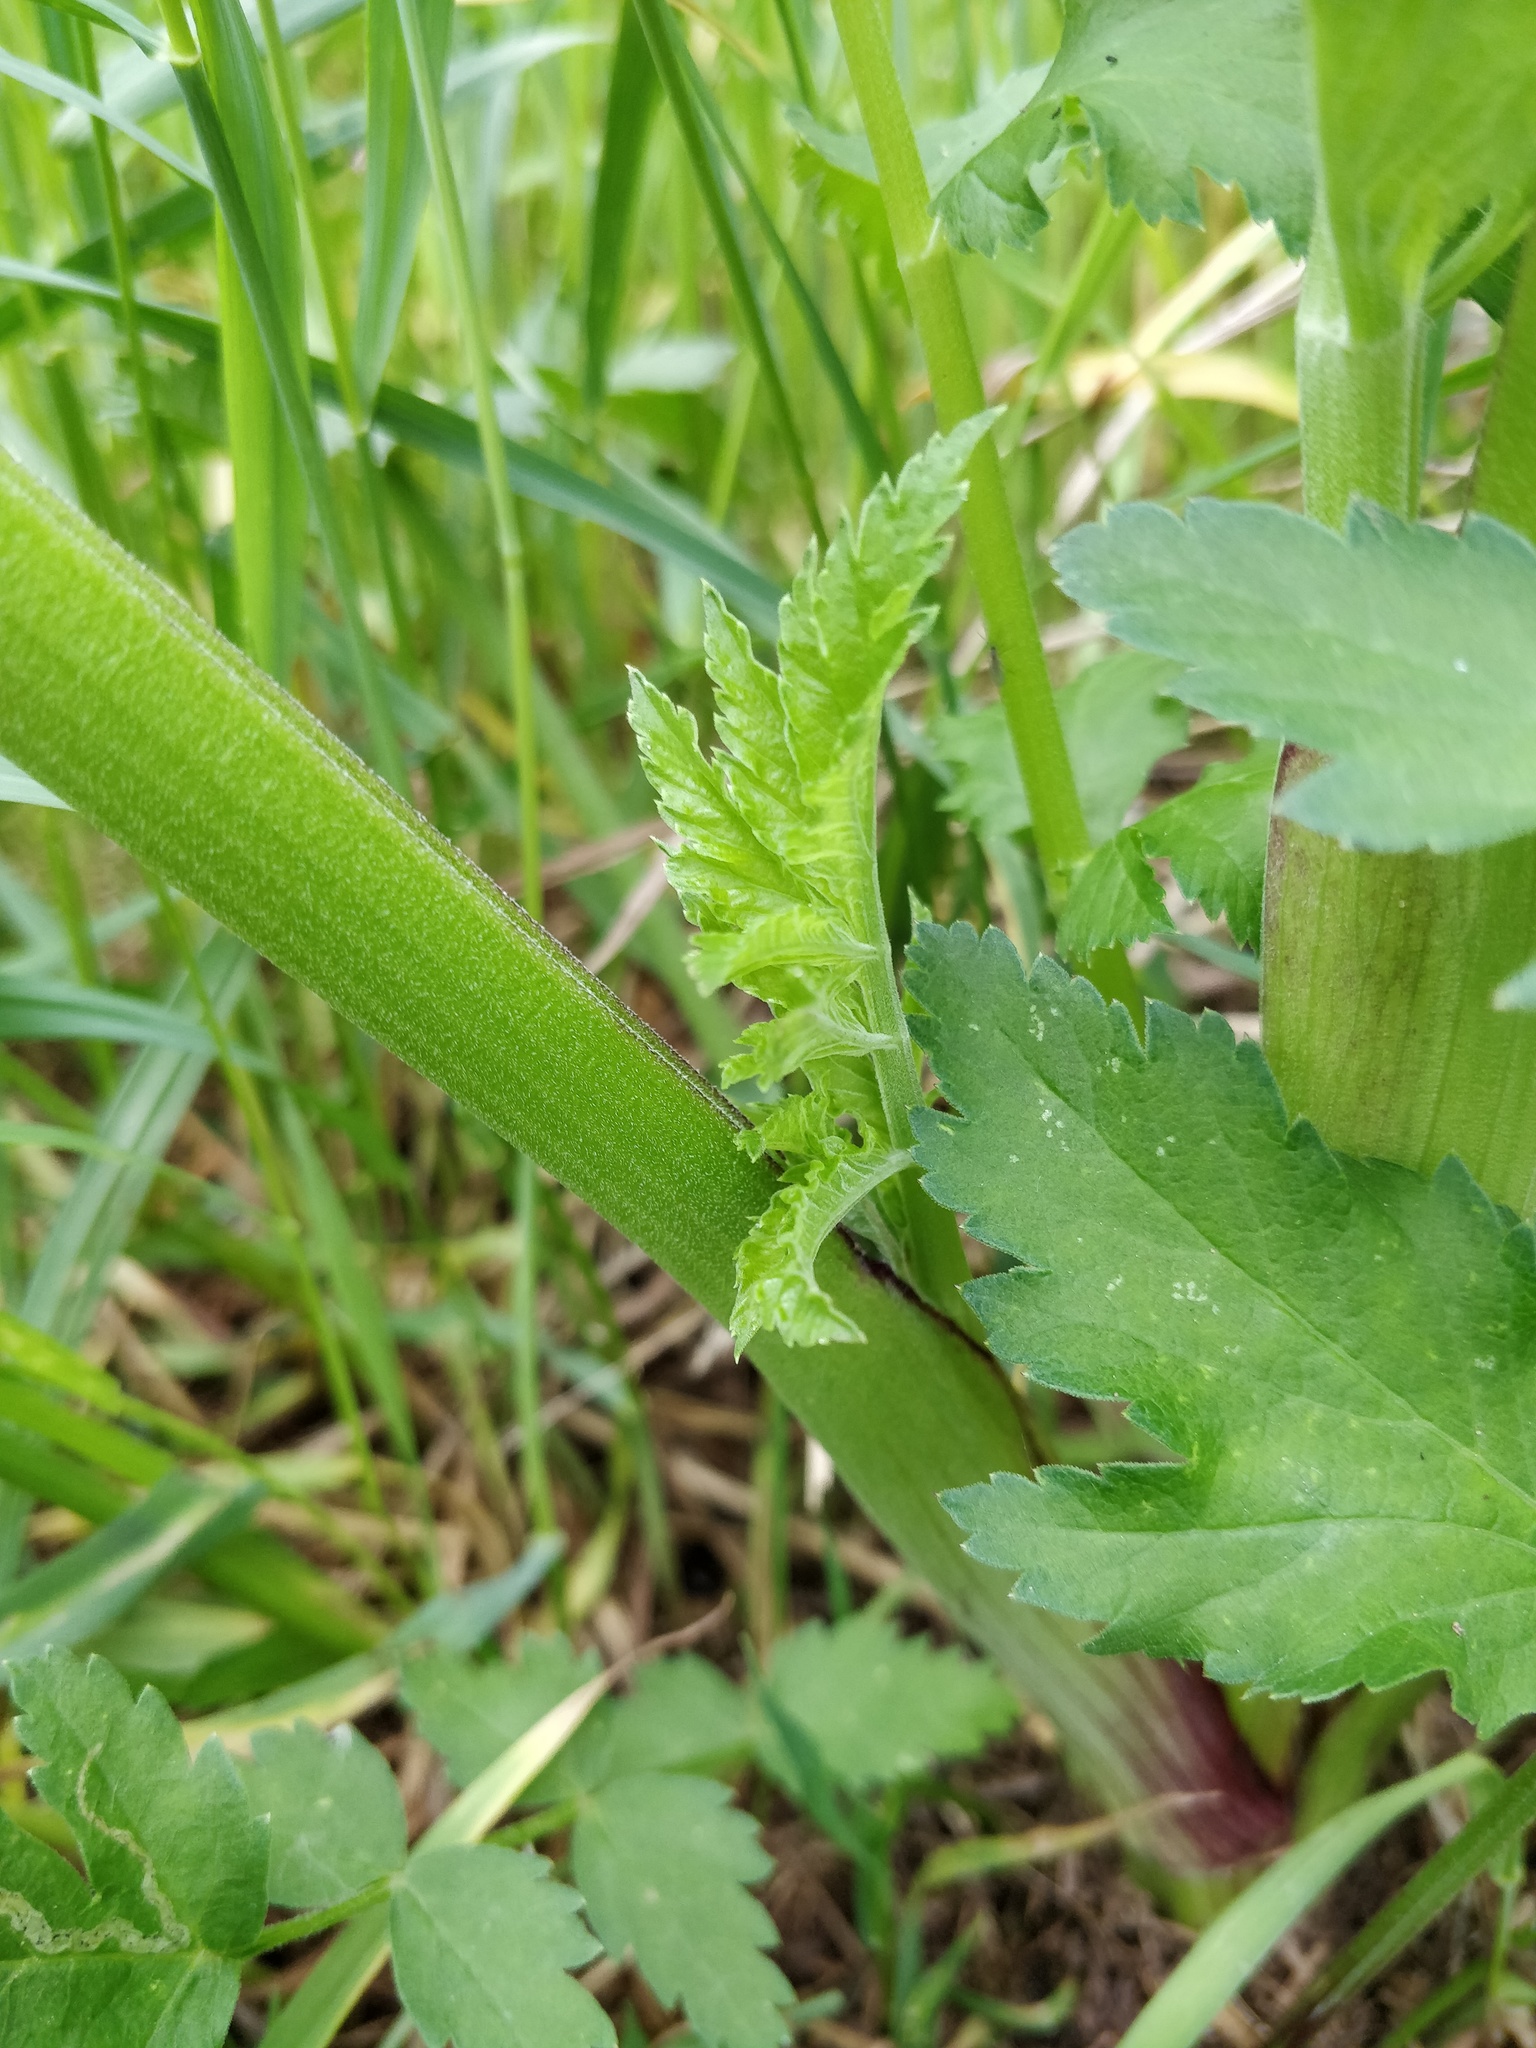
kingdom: Plantae
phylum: Tracheophyta
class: Magnoliopsida
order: Apiales
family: Apiaceae
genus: Pastinaca
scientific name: Pastinaca sativa
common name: Wild parsnip
